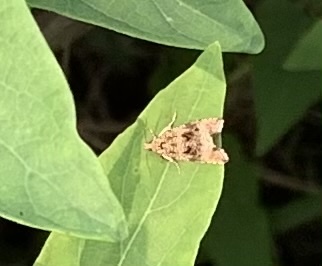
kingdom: Animalia
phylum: Arthropoda
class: Insecta
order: Lepidoptera
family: Tortricidae
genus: Syricoris
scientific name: Syricoris lacunana
